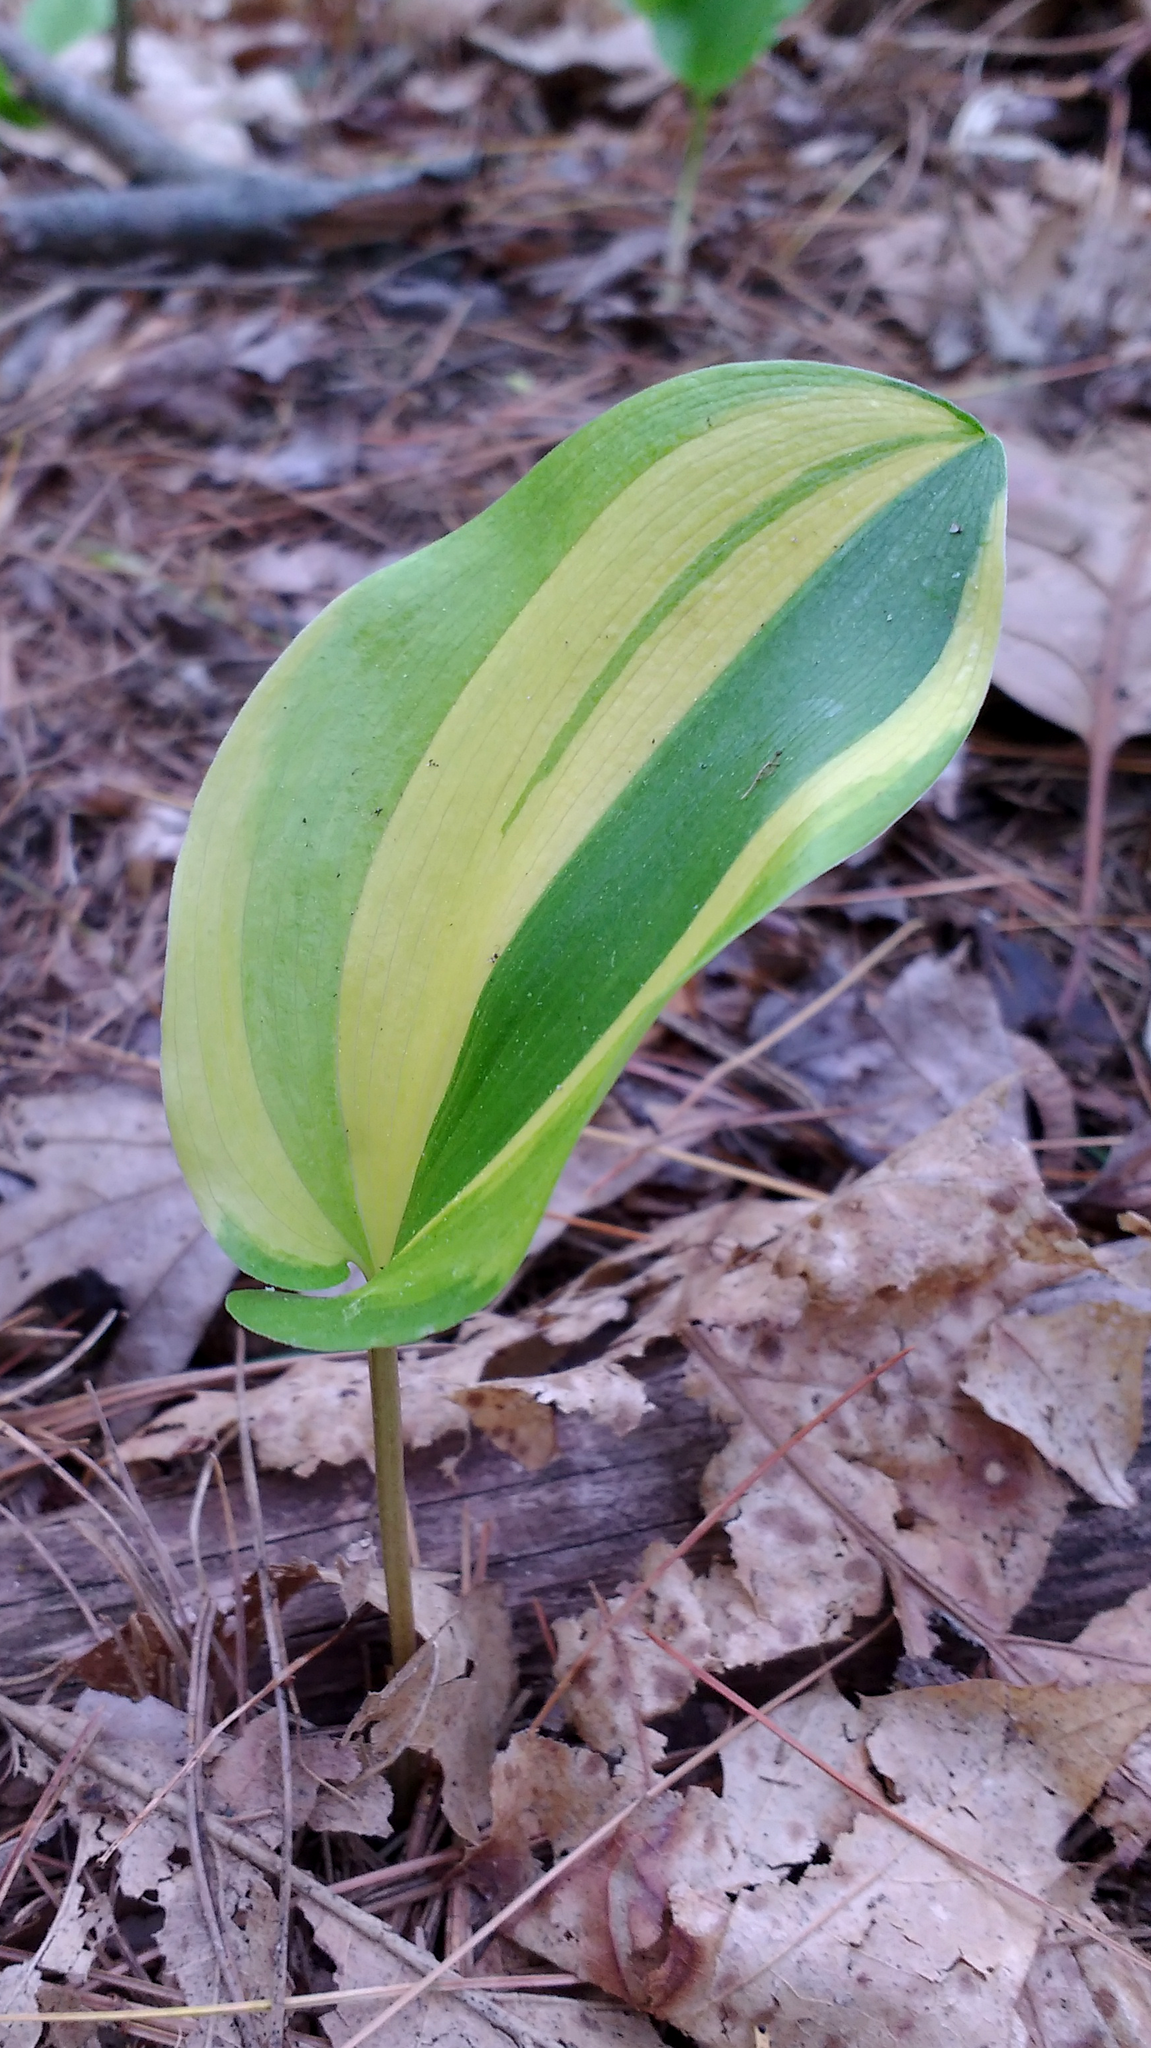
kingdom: Plantae
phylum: Tracheophyta
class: Liliopsida
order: Asparagales
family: Asparagaceae
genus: Maianthemum
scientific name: Maianthemum canadense
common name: False lily-of-the-valley
